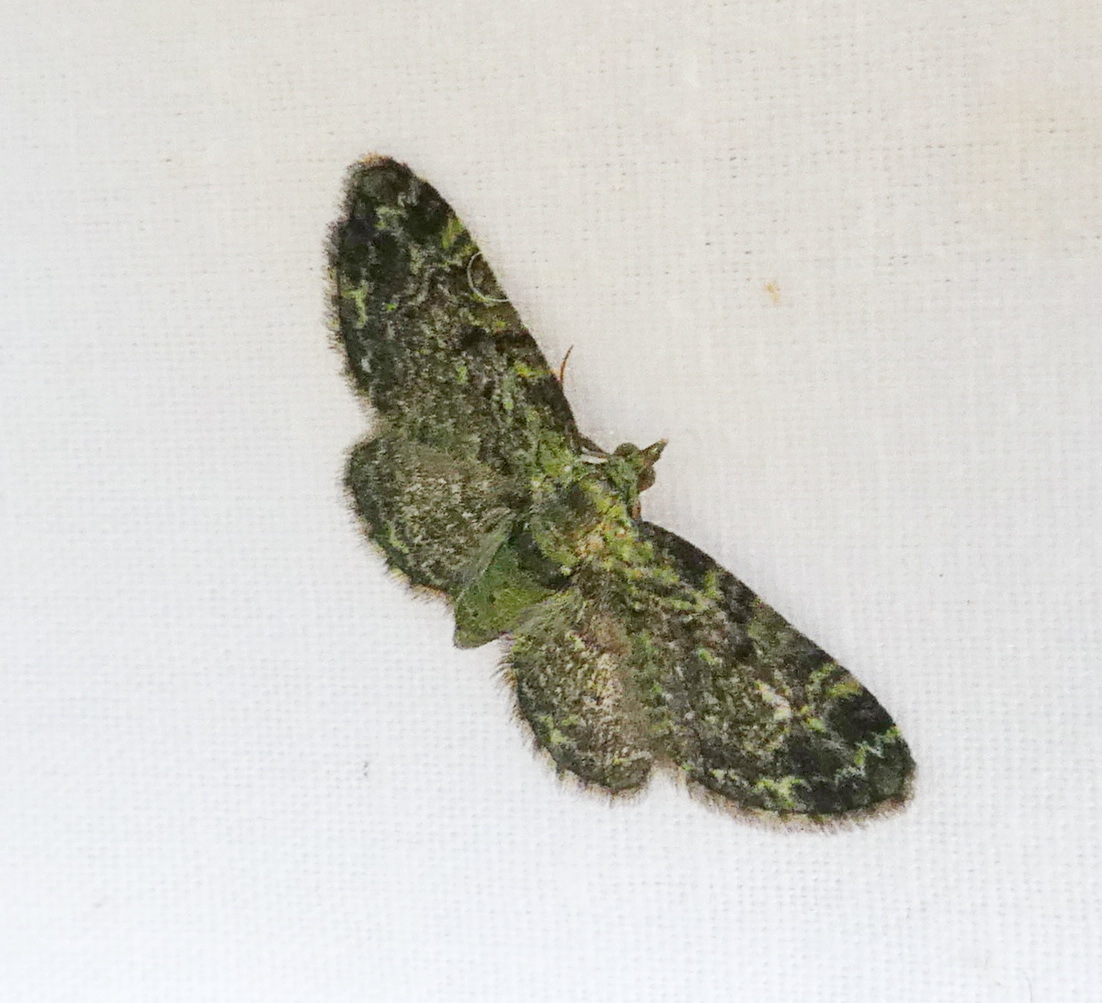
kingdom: Animalia
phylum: Arthropoda
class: Insecta
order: Lepidoptera
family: Geometridae
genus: Pasiphila
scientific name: Pasiphila rectangulata
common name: Green pug
